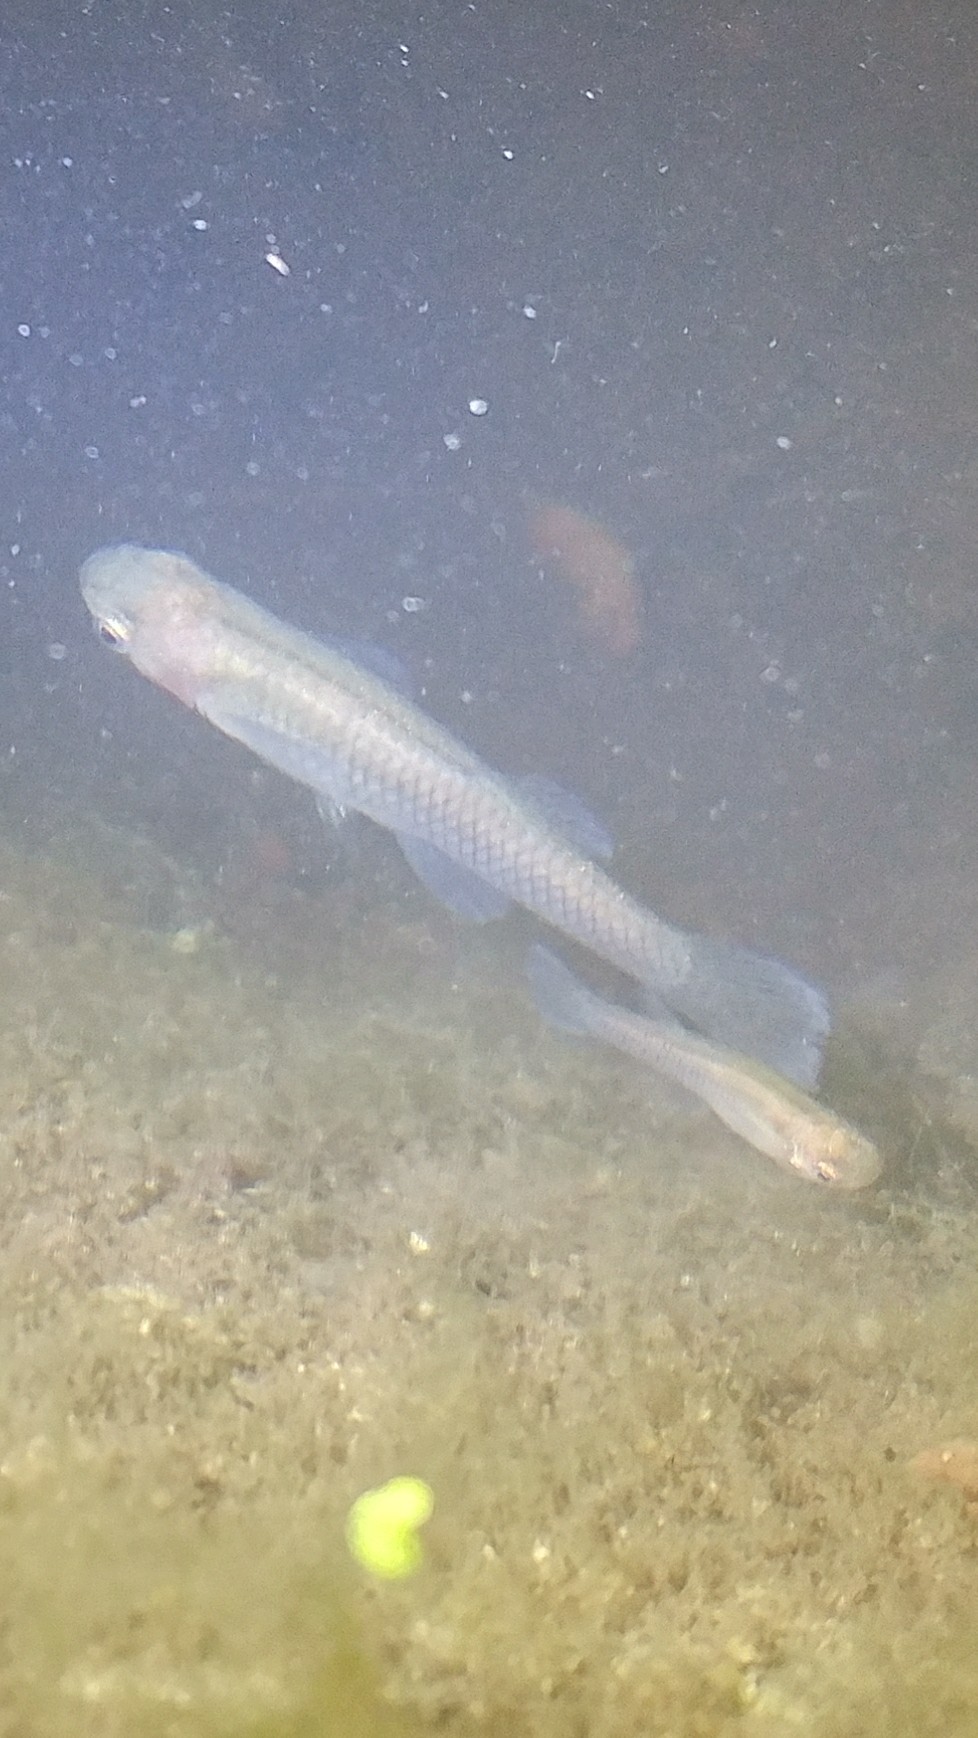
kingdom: Animalia
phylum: Chordata
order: Cyprinodontiformes
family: Poeciliidae
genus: Gambusia
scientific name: Gambusia affinis
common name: Mosquitofish
